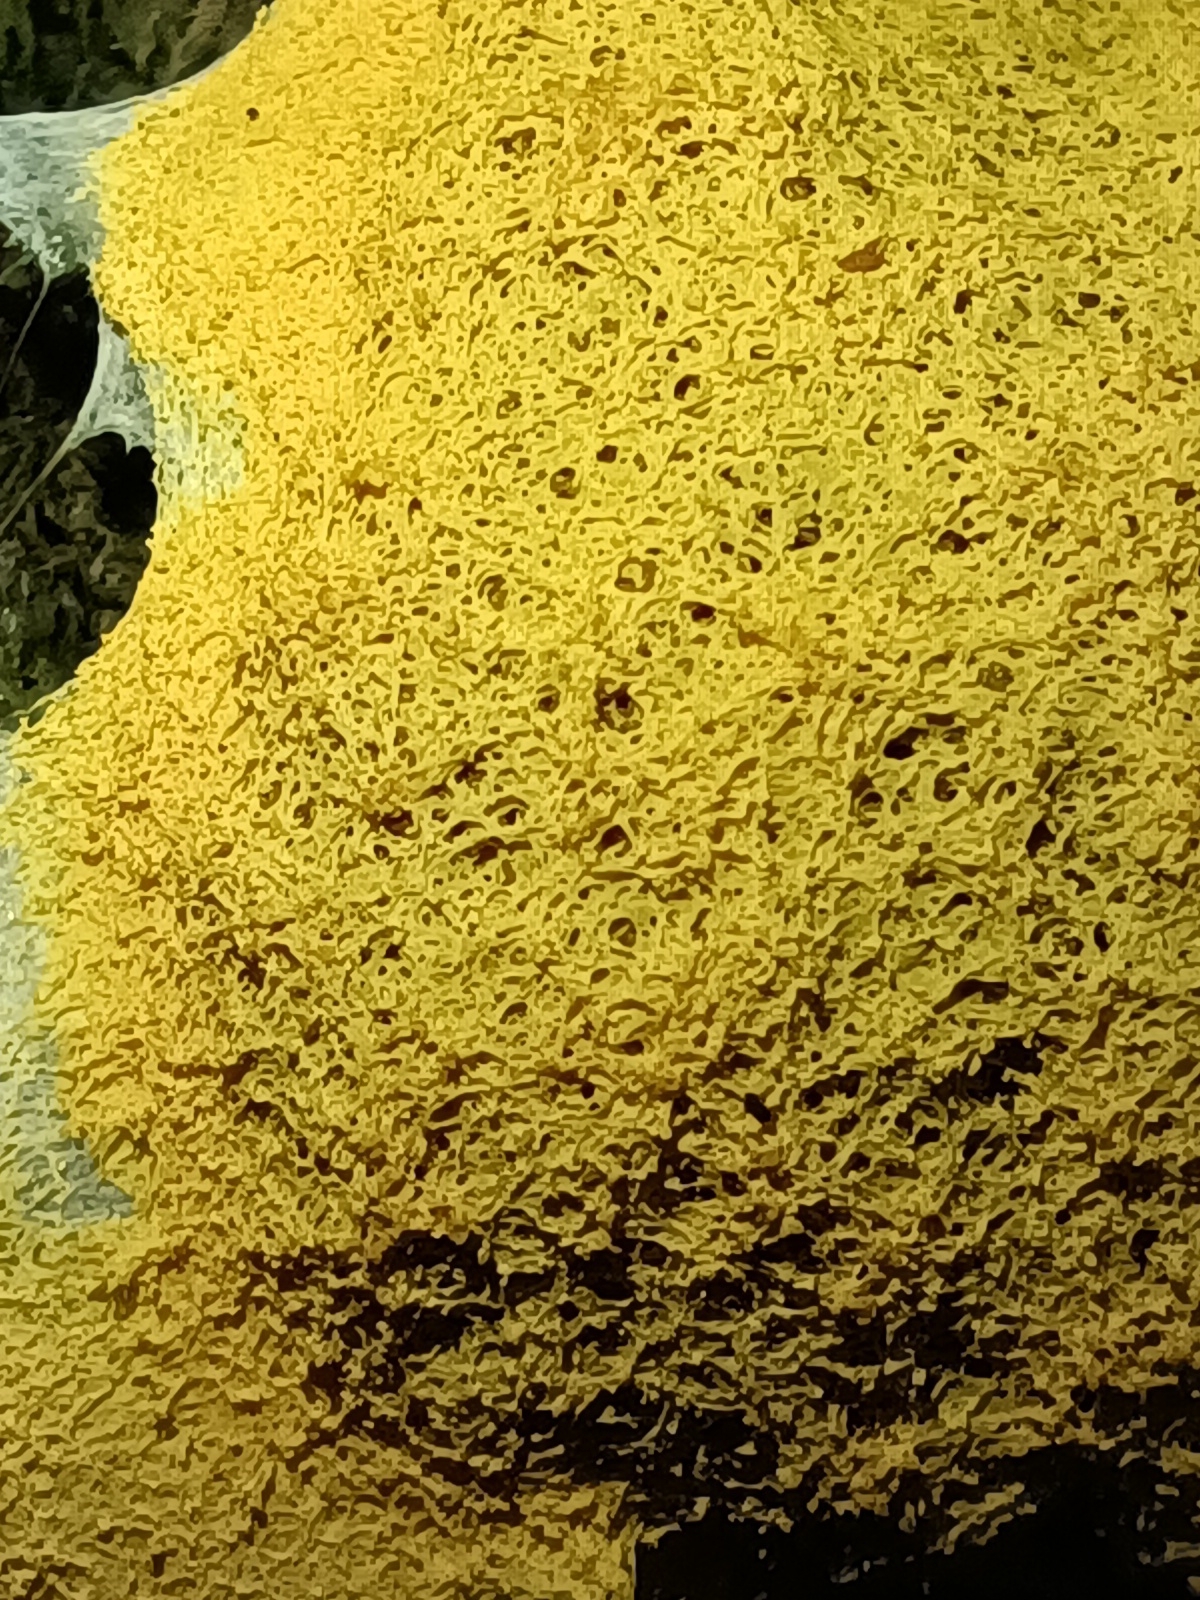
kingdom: Protozoa
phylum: Mycetozoa
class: Myxomycetes
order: Physarales
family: Physaraceae
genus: Fuligo
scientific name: Fuligo septica
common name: Dog vomit slime mold
